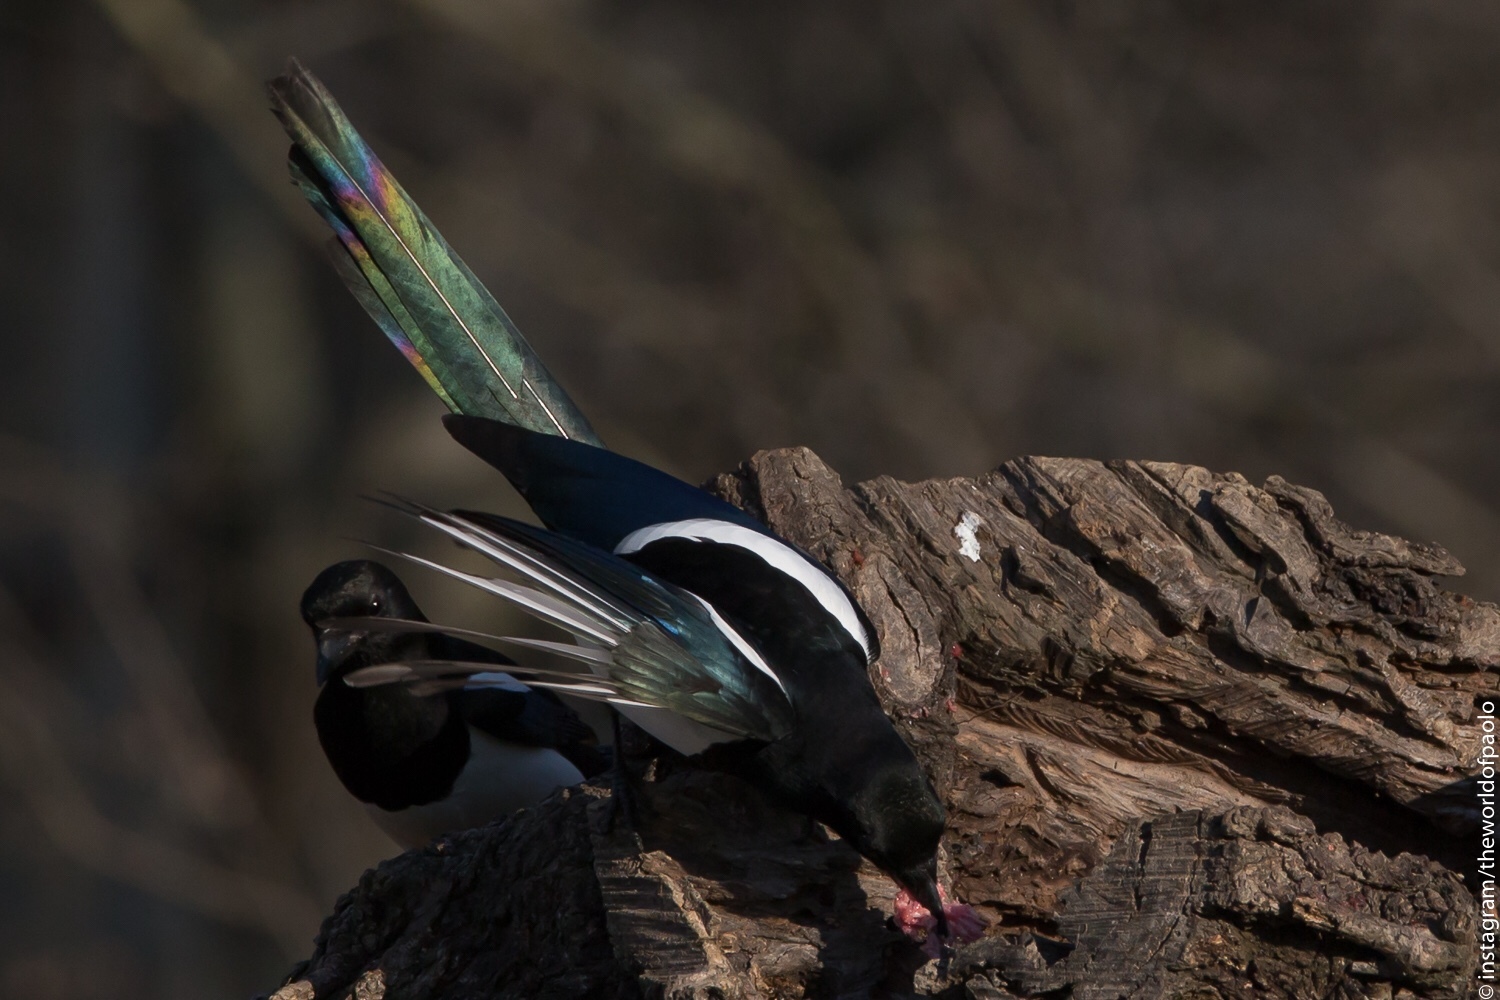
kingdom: Animalia
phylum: Chordata
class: Aves
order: Passeriformes
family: Corvidae
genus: Pica
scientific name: Pica pica
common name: Eurasian magpie
